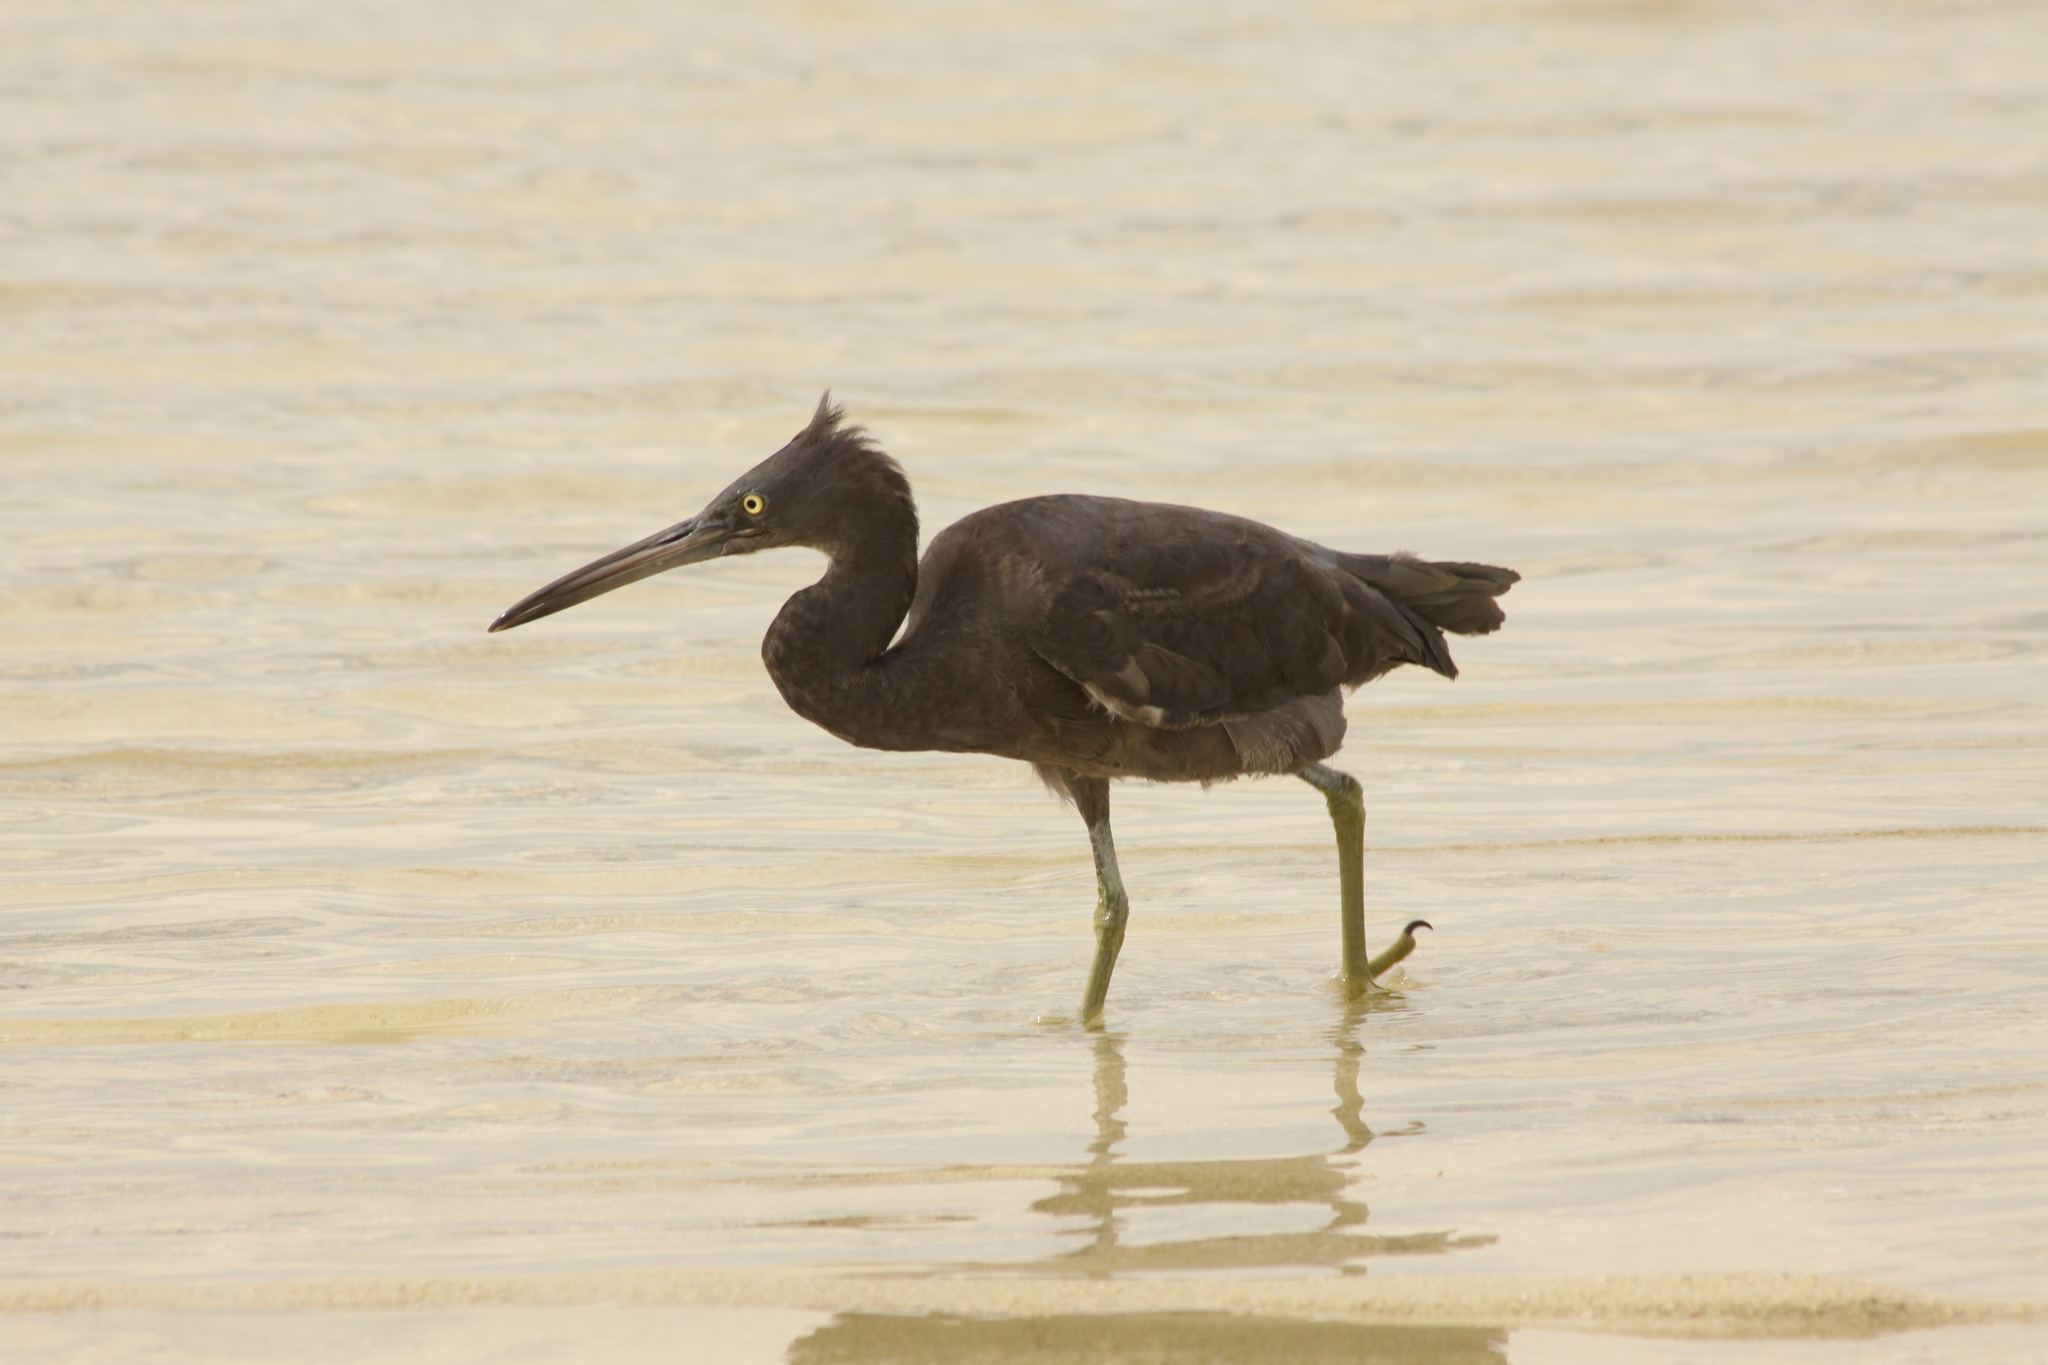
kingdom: Animalia
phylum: Chordata
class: Aves
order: Pelecaniformes
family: Ardeidae
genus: Egretta
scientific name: Egretta sacra
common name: Pacific reef heron
